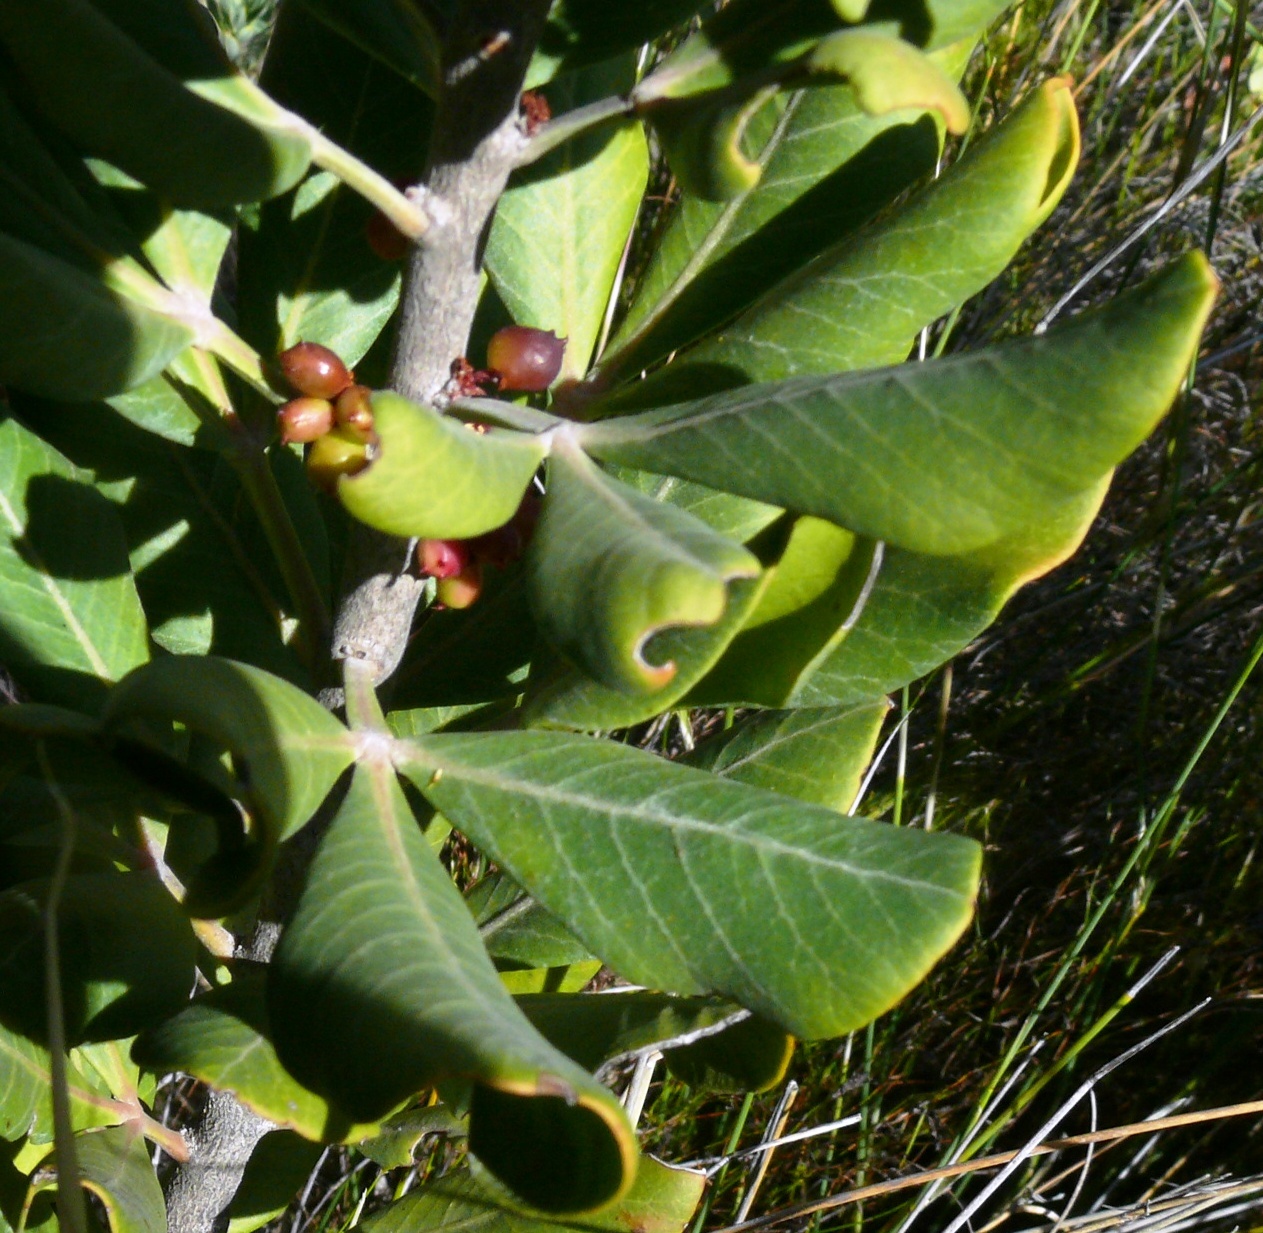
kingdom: Plantae
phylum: Tracheophyta
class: Magnoliopsida
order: Sapindales
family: Anacardiaceae
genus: Searsia
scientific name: Searsia scytophylla
